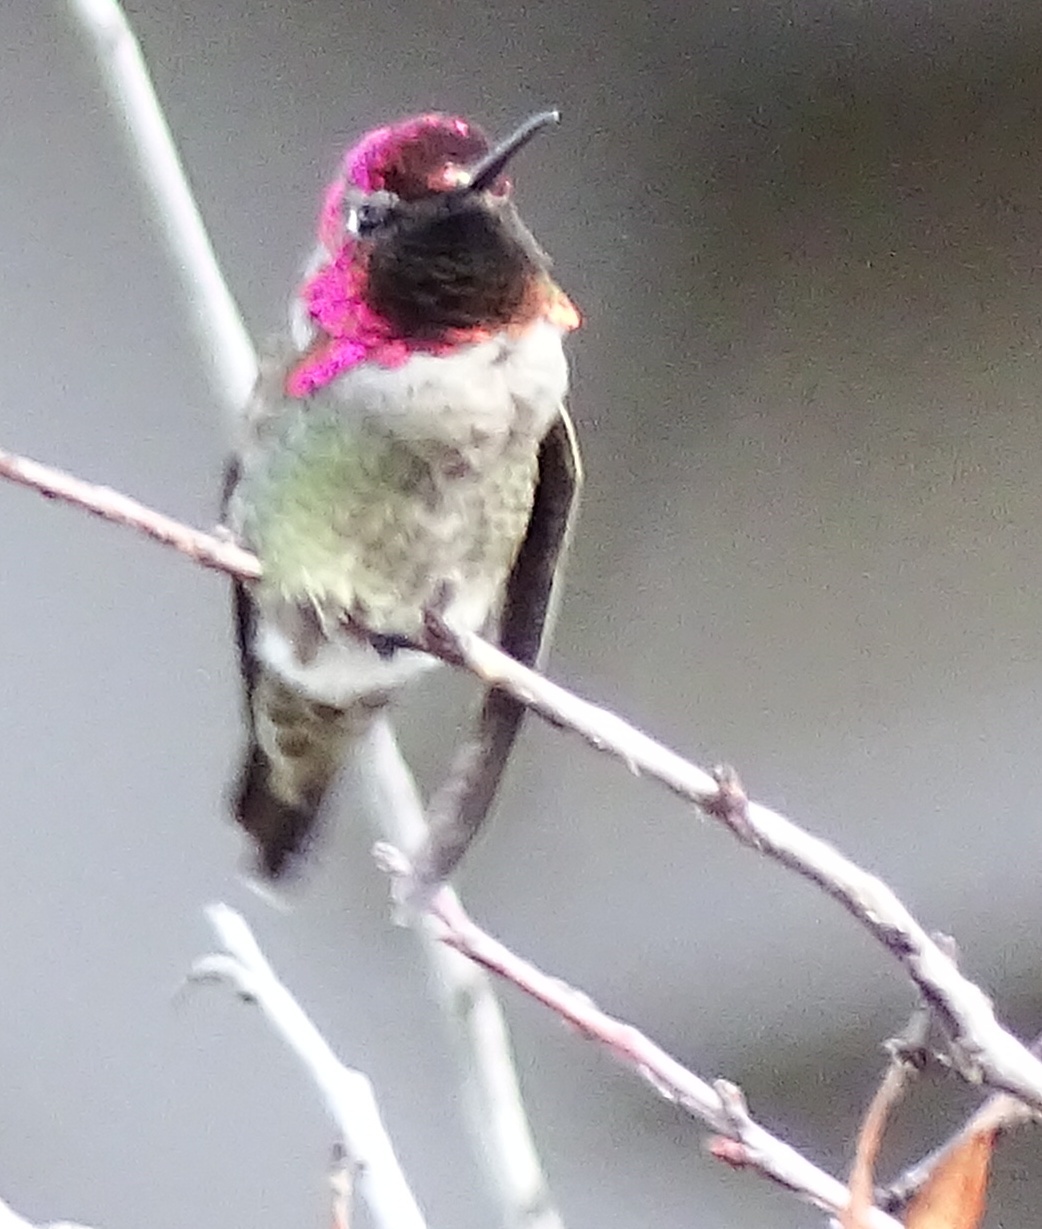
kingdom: Animalia
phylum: Chordata
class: Aves
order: Apodiformes
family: Trochilidae
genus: Calypte
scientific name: Calypte anna
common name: Anna's hummingbird
